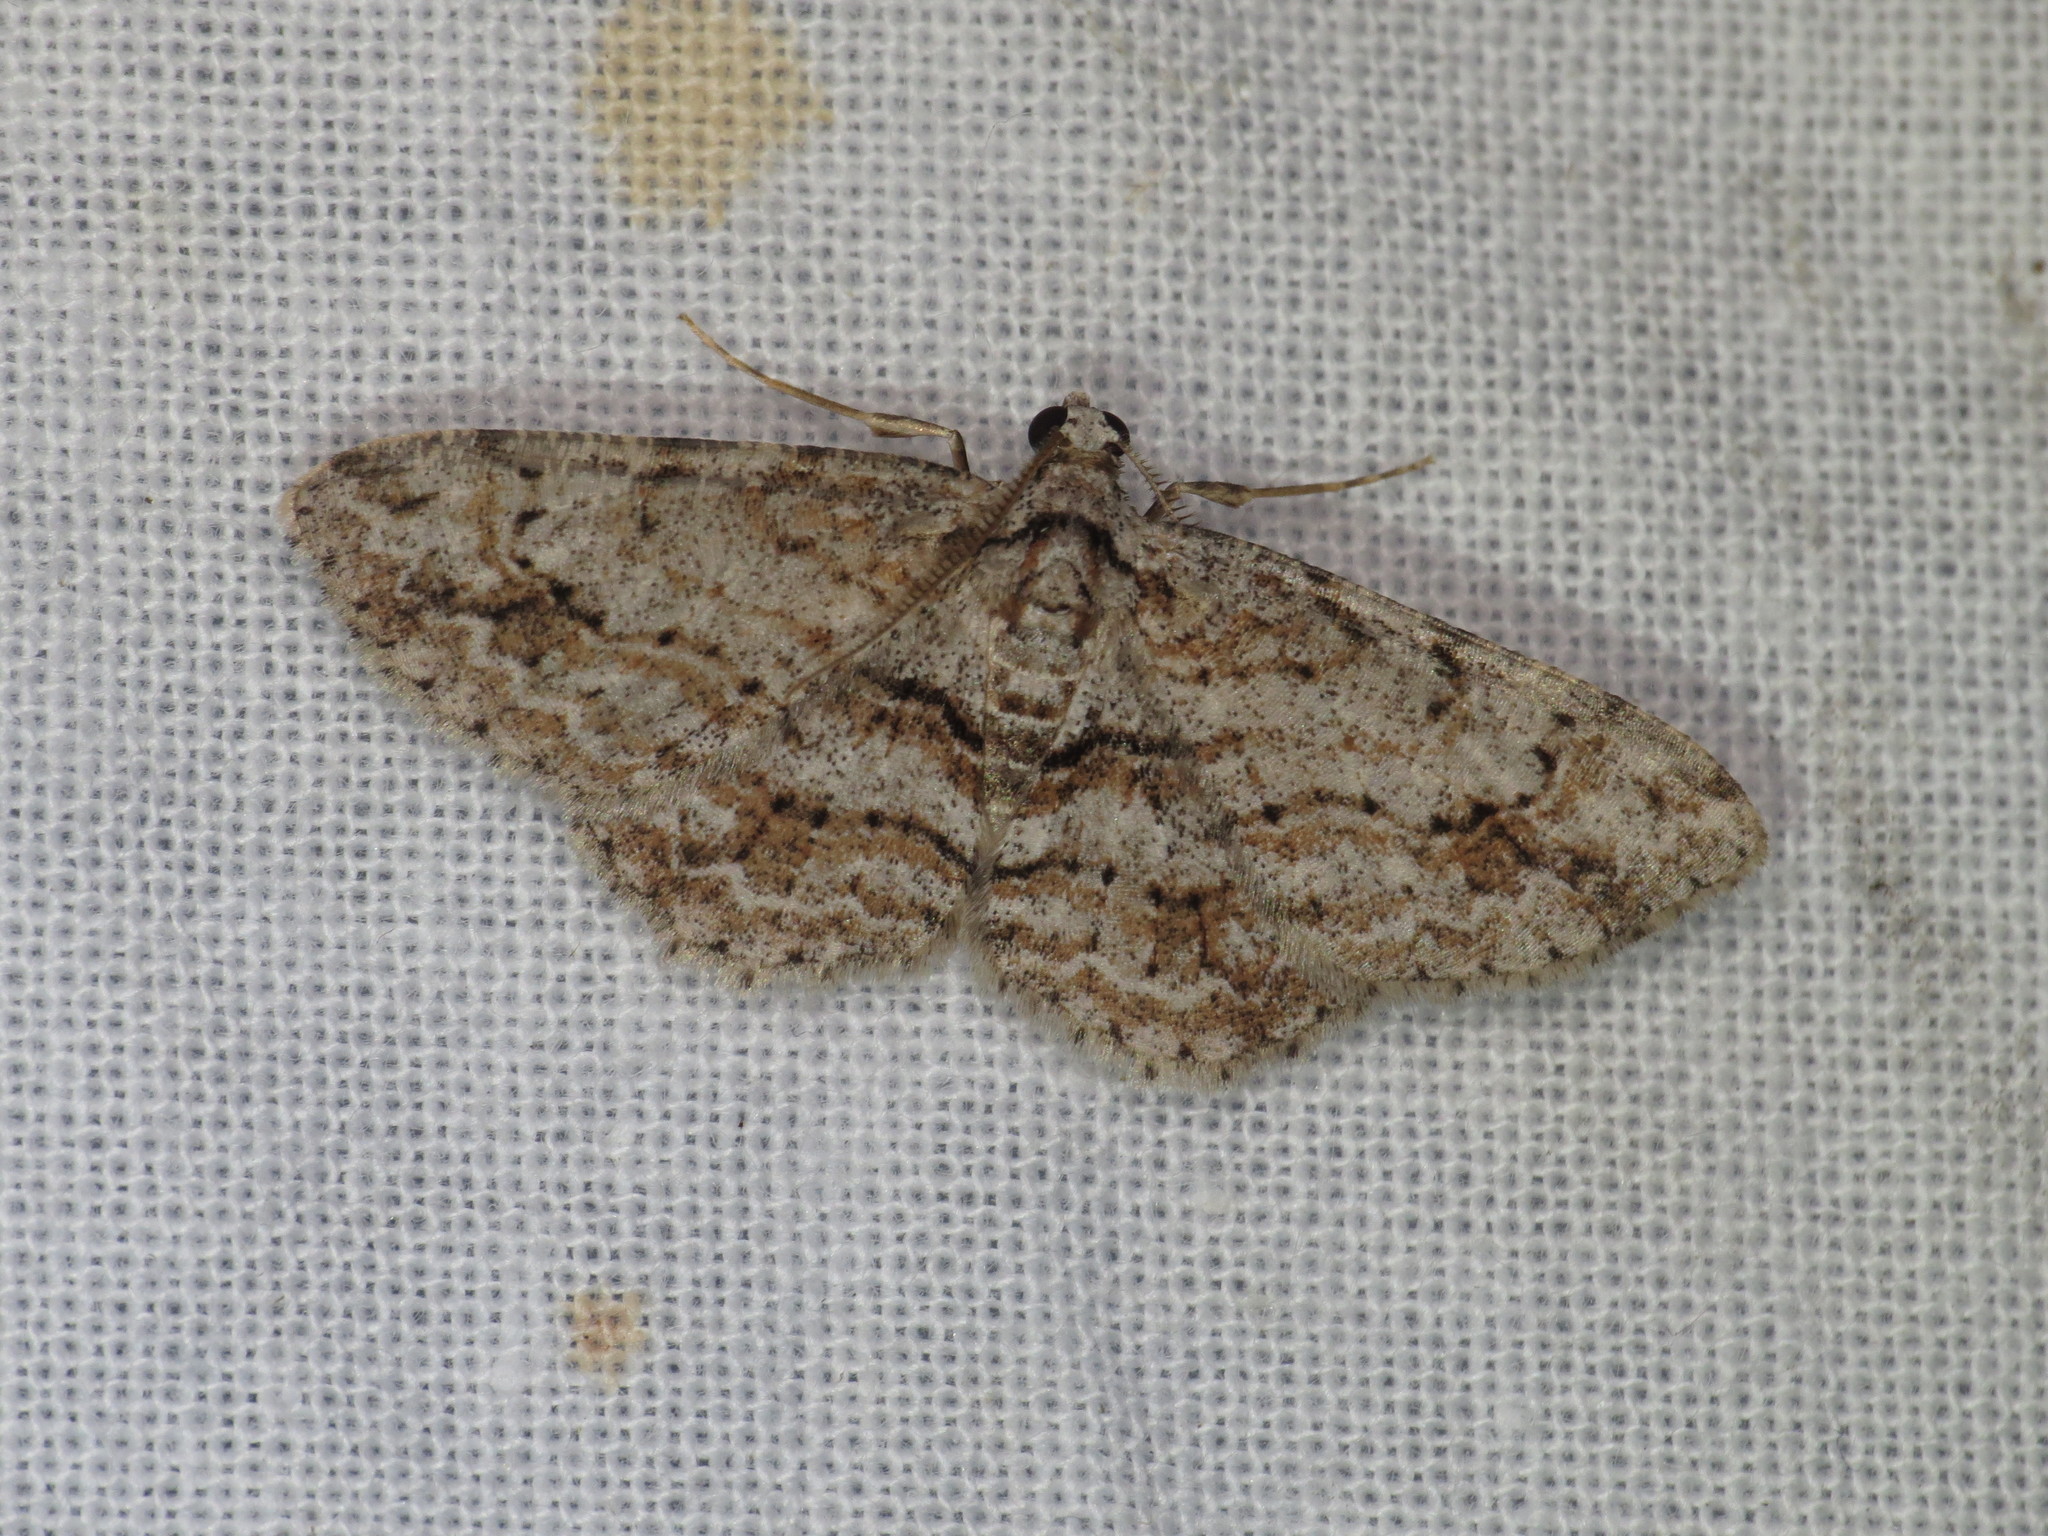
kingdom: Animalia
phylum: Arthropoda
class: Insecta
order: Lepidoptera
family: Geometridae
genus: Didymoctenia
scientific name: Didymoctenia exsuperata
